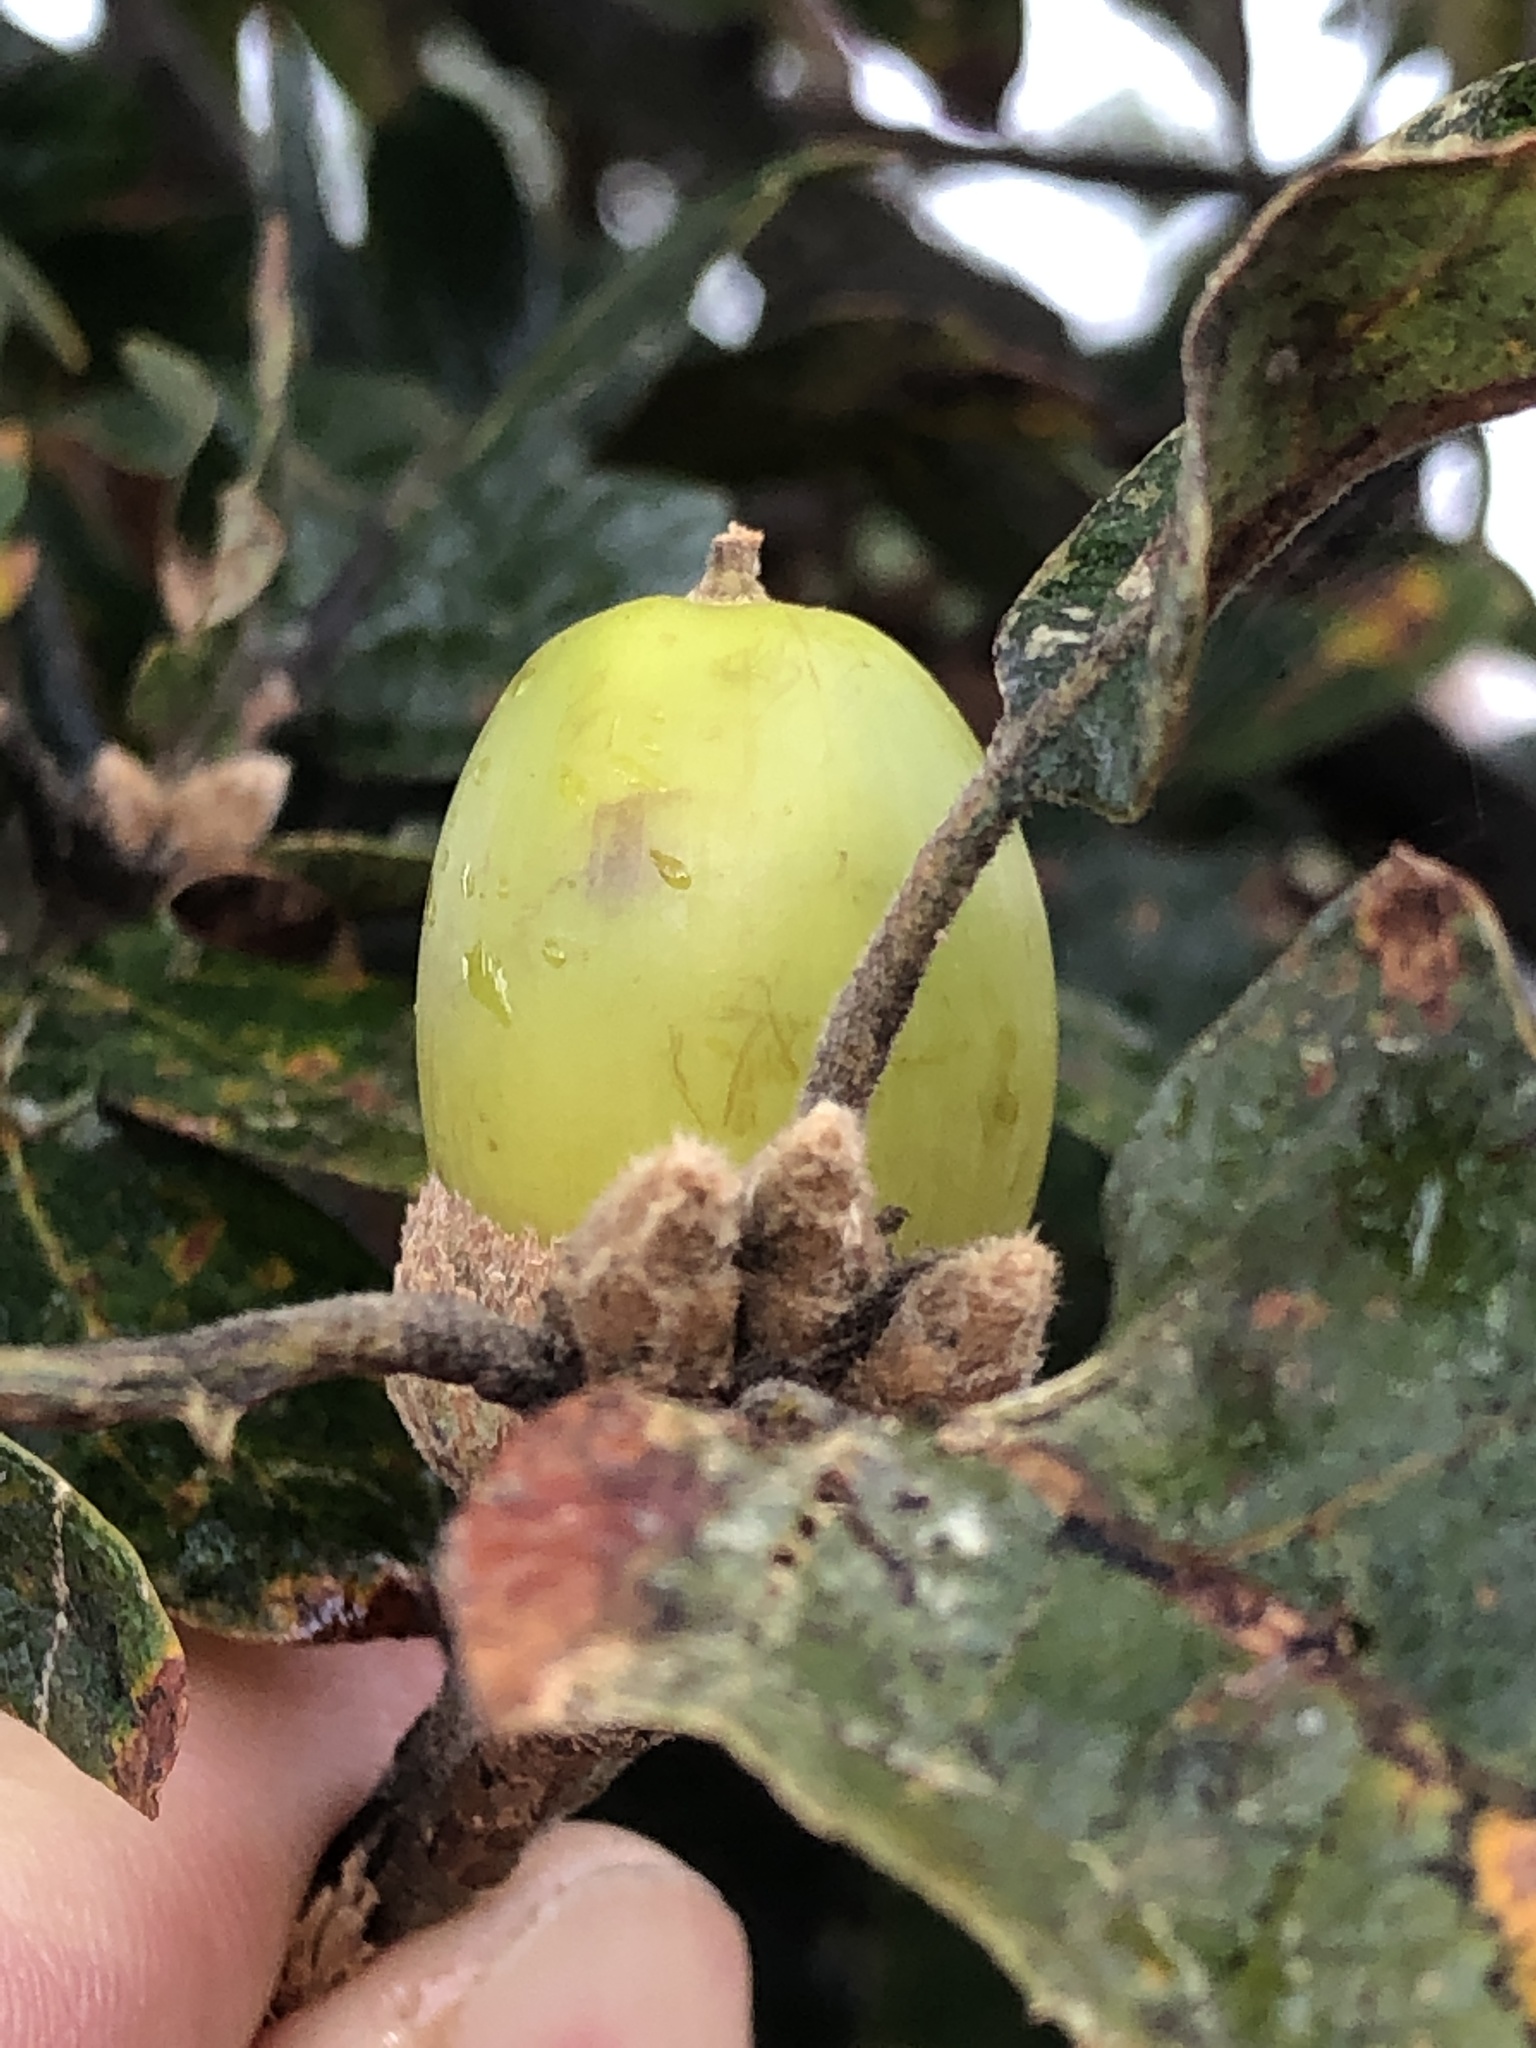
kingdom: Plantae
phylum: Tracheophyta
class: Magnoliopsida
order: Fagales
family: Fagaceae
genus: Quercus
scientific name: Quercus garryana
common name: Garry oak
